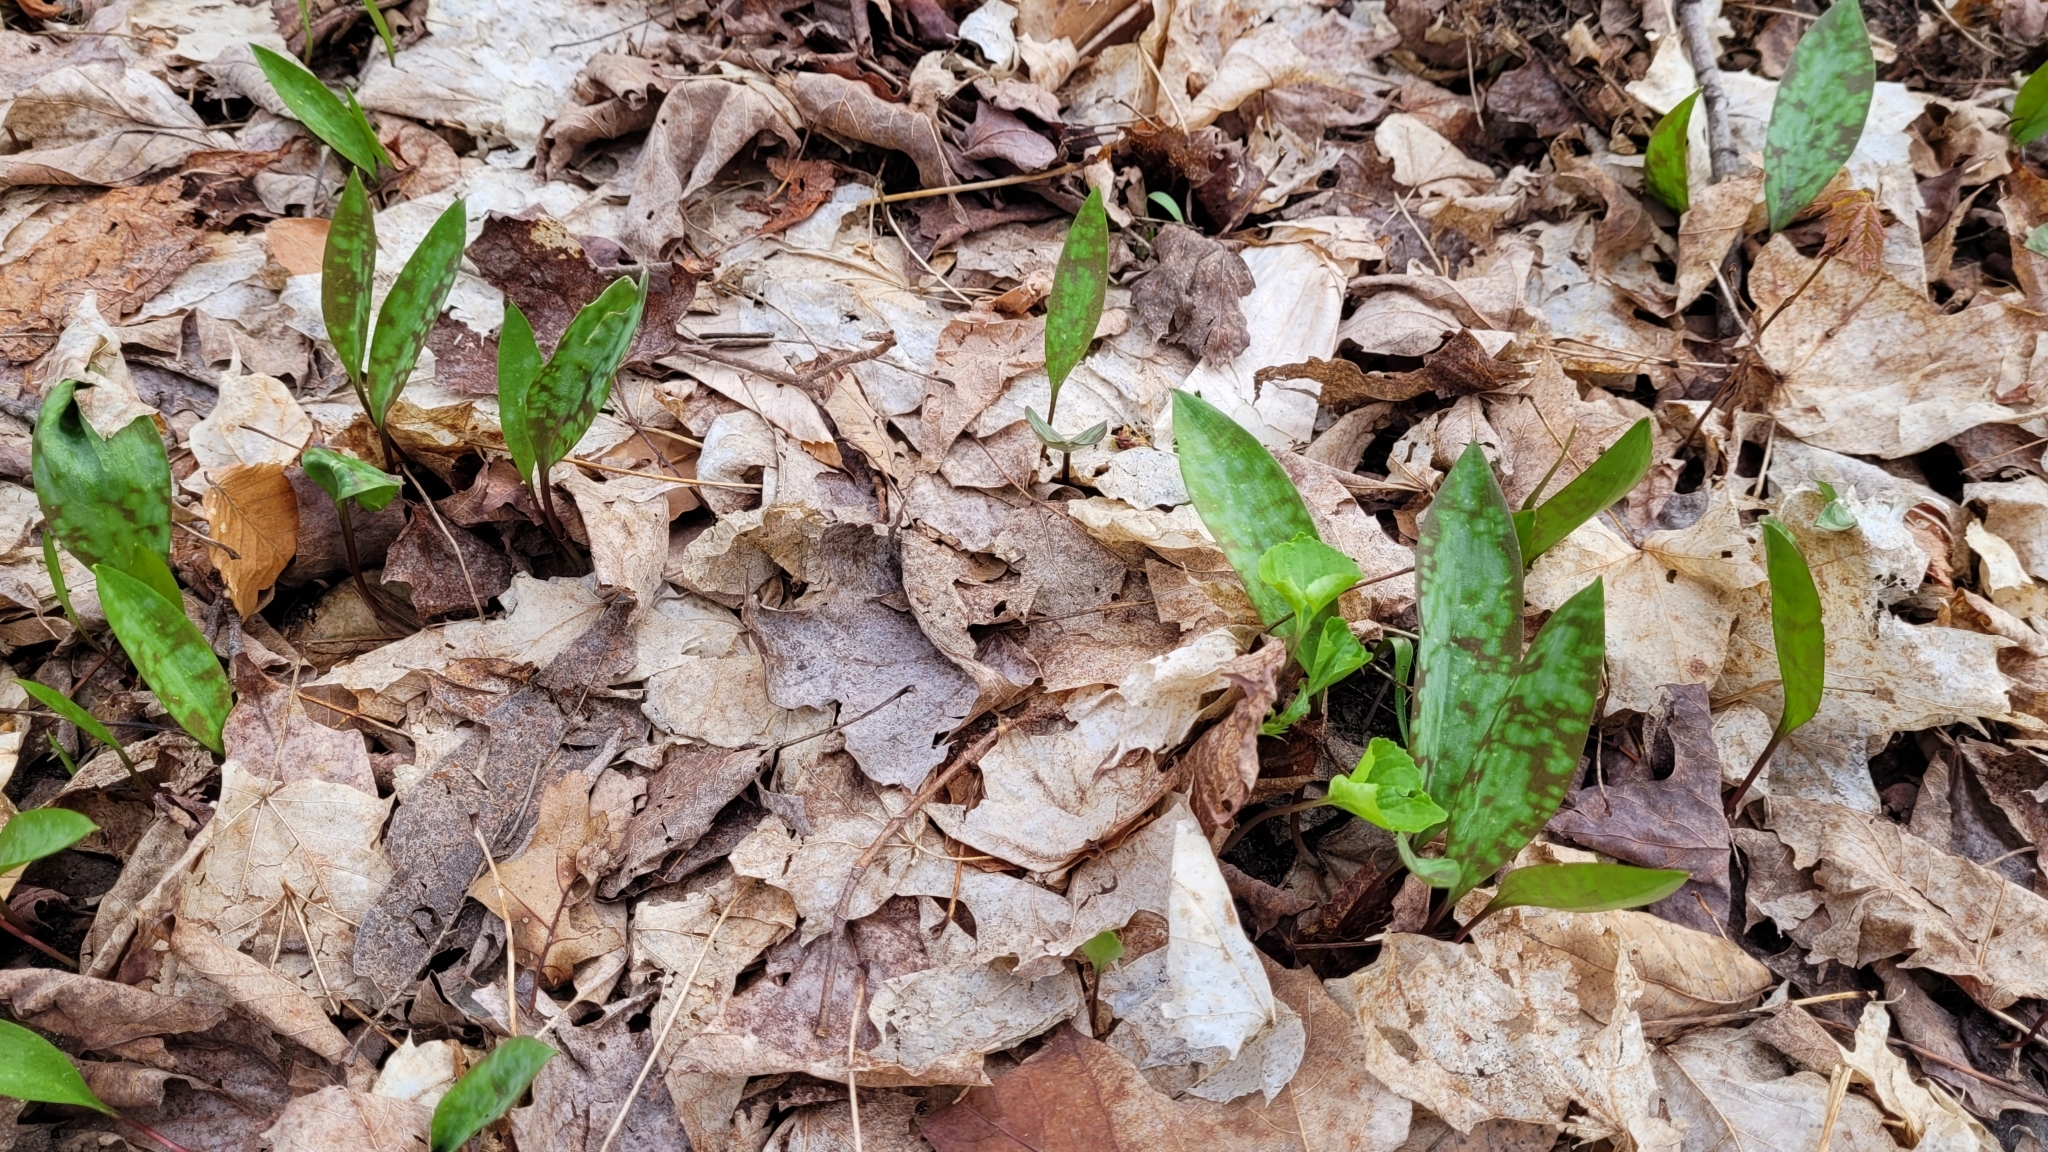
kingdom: Plantae
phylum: Tracheophyta
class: Liliopsida
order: Liliales
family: Liliaceae
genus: Erythronium
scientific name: Erythronium americanum
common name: Yellow adder's-tongue
